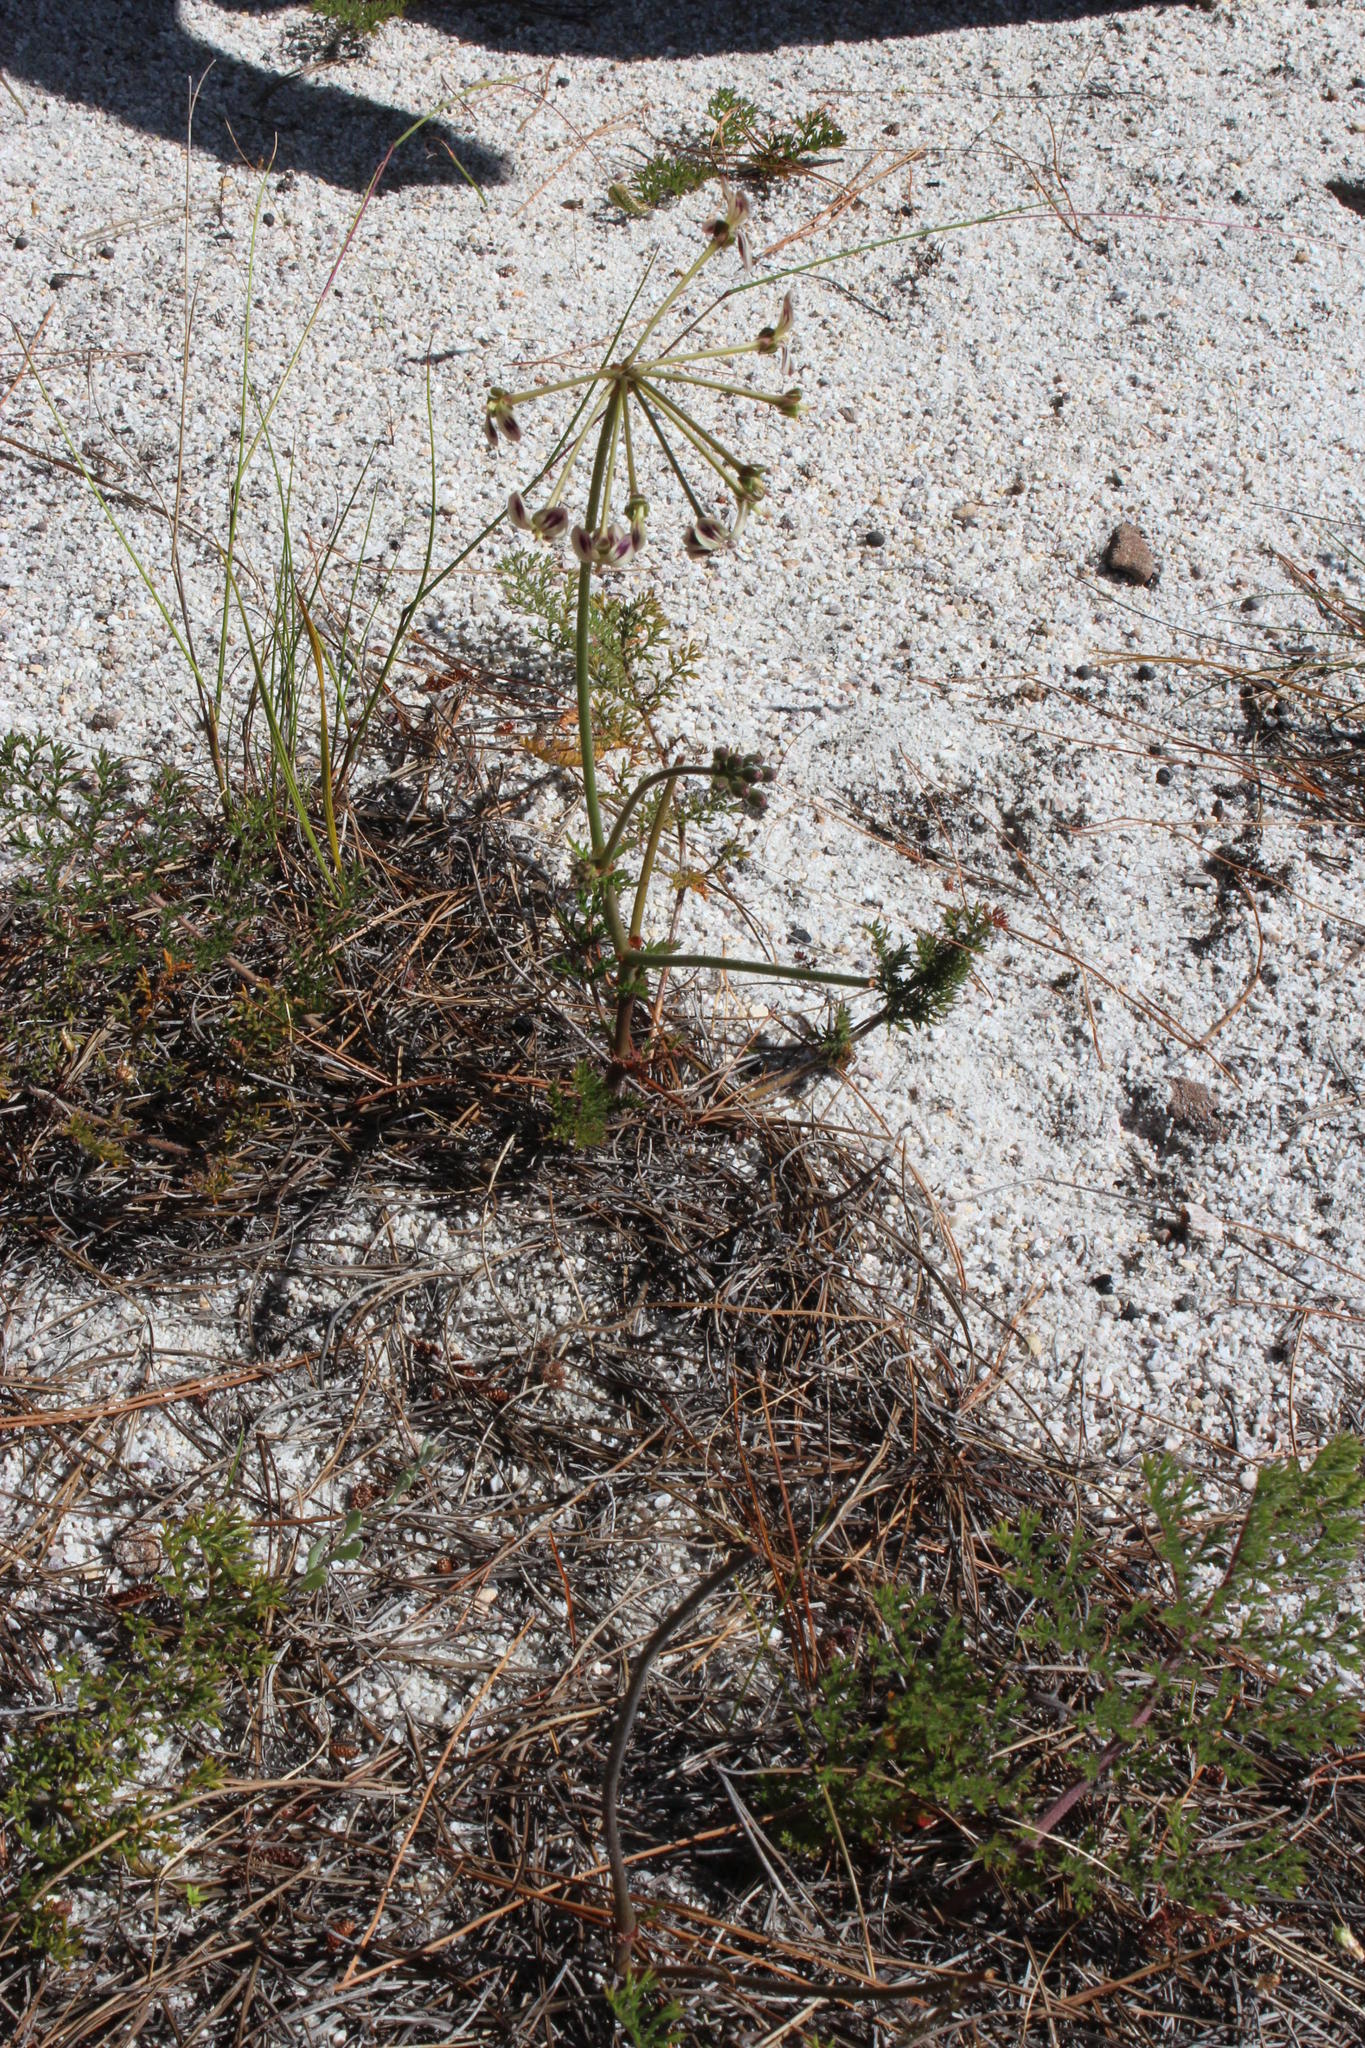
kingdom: Plantae
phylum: Tracheophyta
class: Magnoliopsida
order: Geraniales
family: Geraniaceae
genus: Pelargonium
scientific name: Pelargonium triste
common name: Night-scent pelargonium
